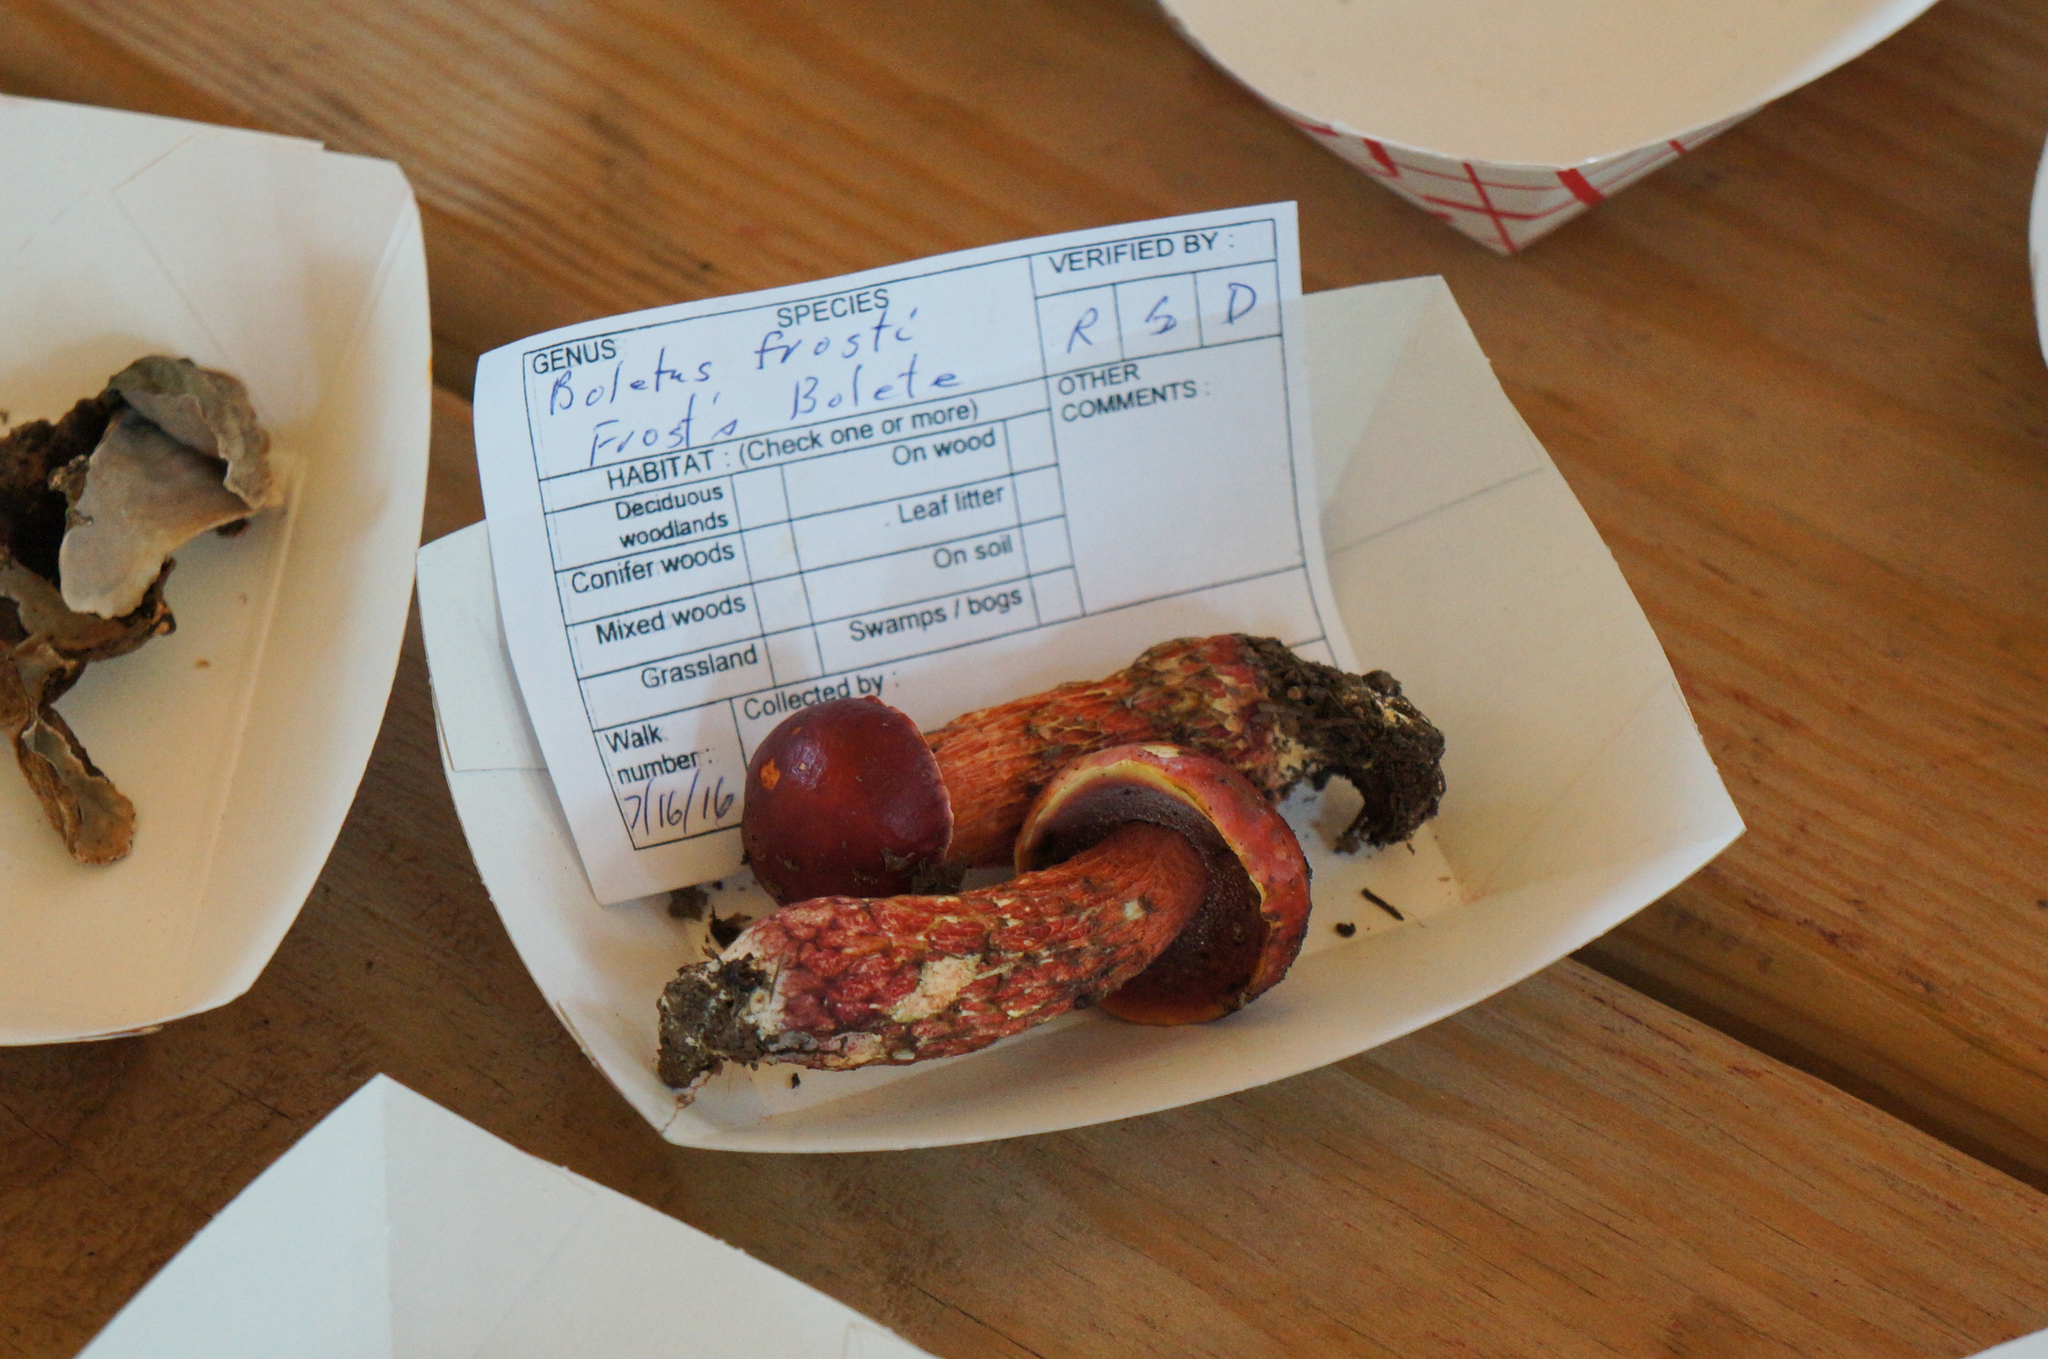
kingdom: Fungi
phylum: Basidiomycota
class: Agaricomycetes
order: Boletales
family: Boletaceae
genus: Butyriboletus
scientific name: Butyriboletus frostii
